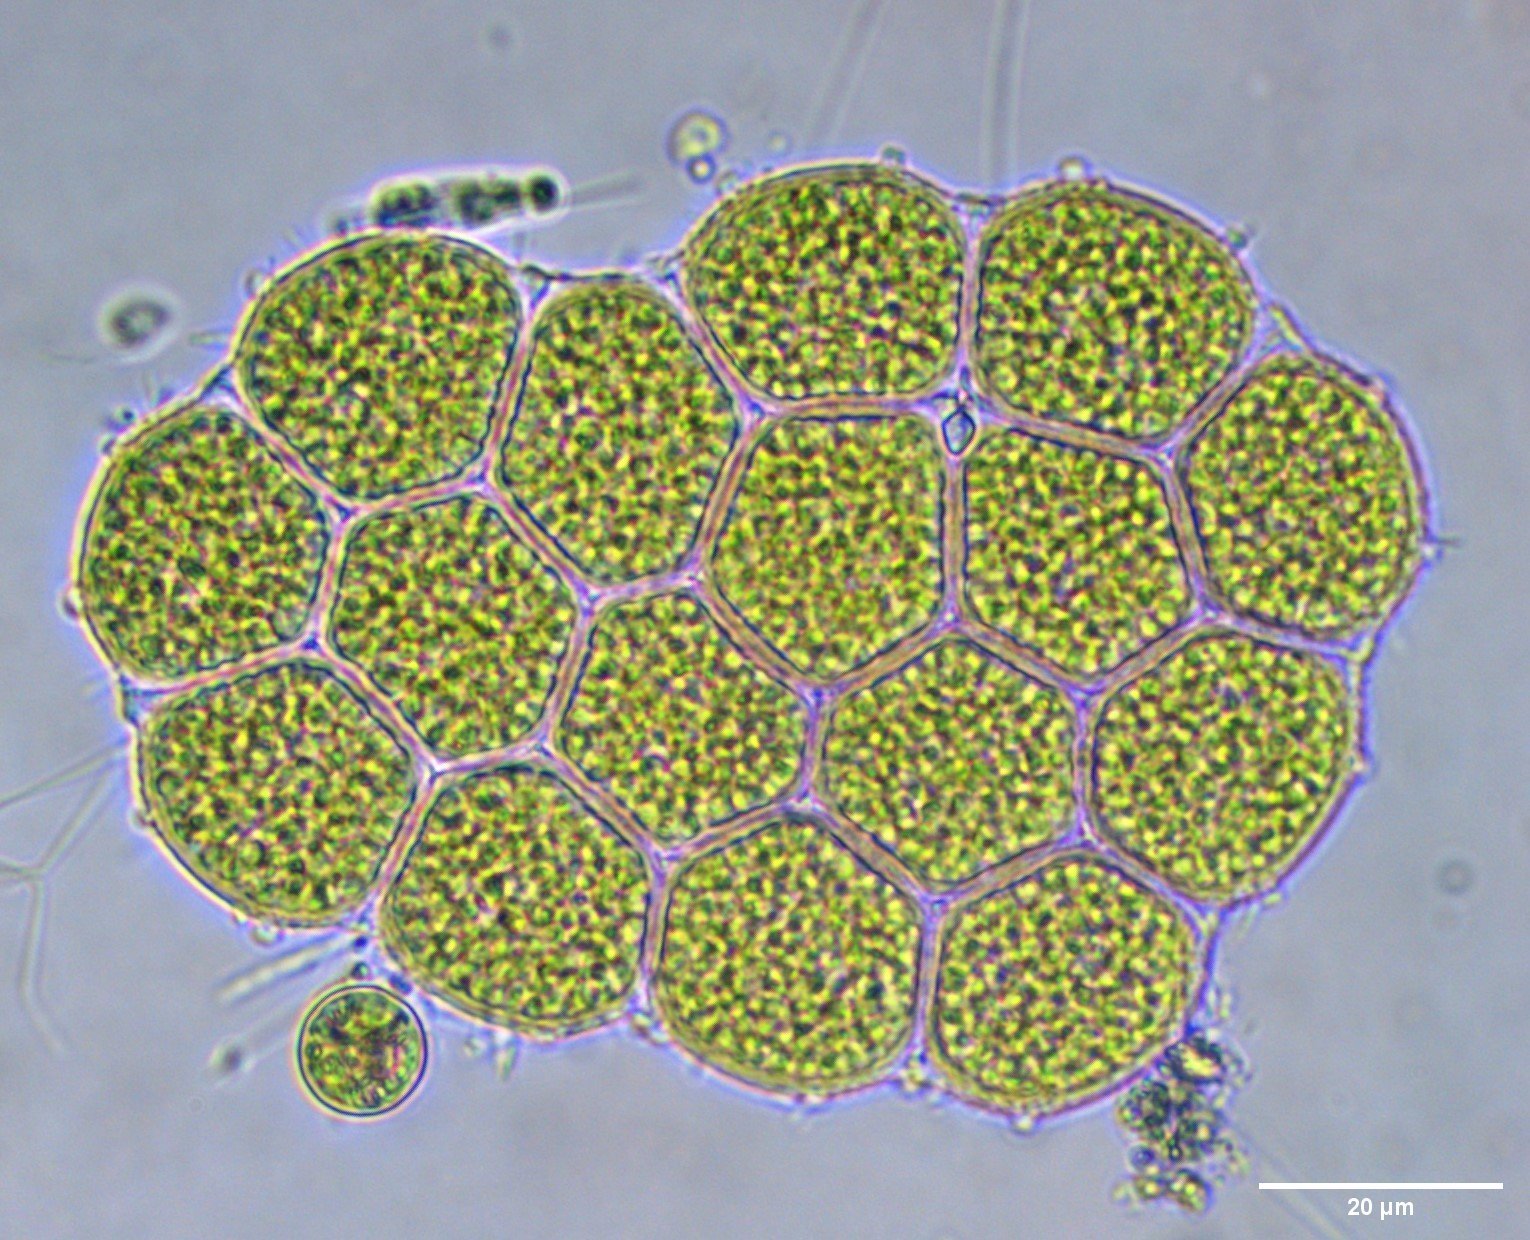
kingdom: Plantae
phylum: Chlorophyta
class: Chlorophyceae
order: Sphaeropleales
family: Hydrodictyaceae
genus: Pseudopediastrum
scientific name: Pseudopediastrum integrum
